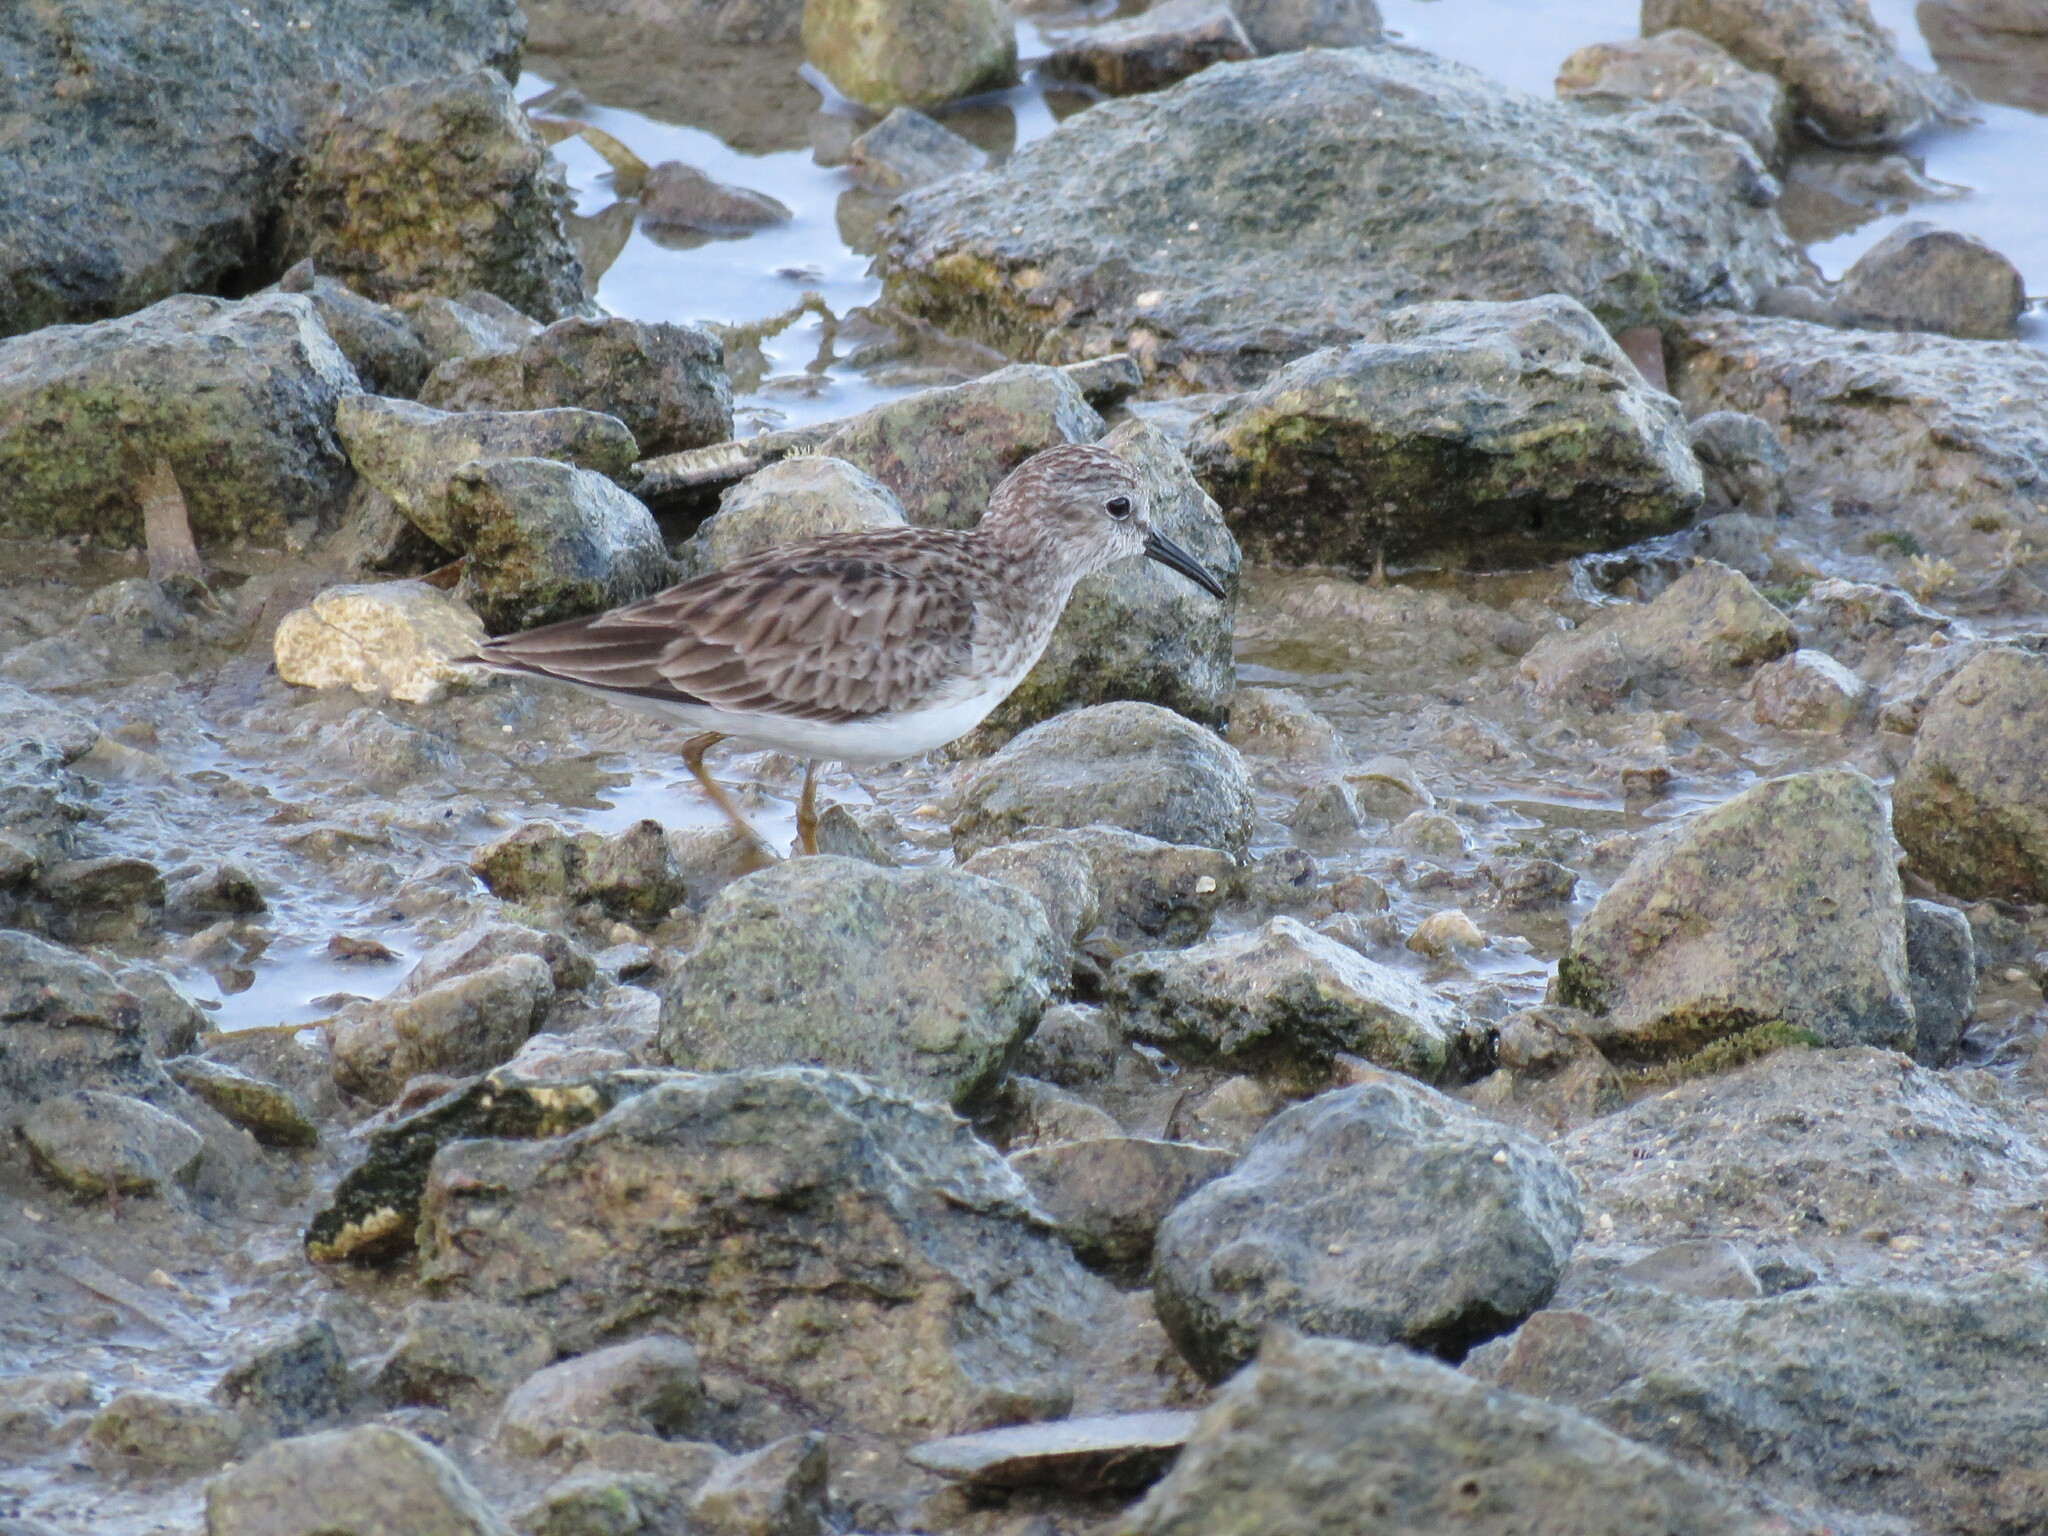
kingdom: Animalia
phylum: Chordata
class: Aves
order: Charadriiformes
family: Scolopacidae
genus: Calidris
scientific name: Calidris minutilla
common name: Least sandpiper
